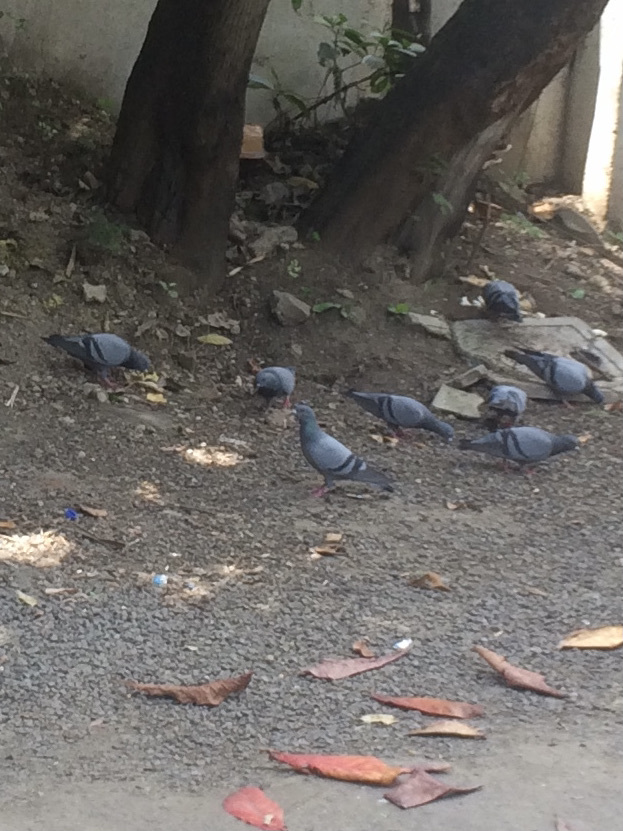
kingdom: Animalia
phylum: Chordata
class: Aves
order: Columbiformes
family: Columbidae
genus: Columba
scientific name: Columba livia
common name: Rock pigeon
